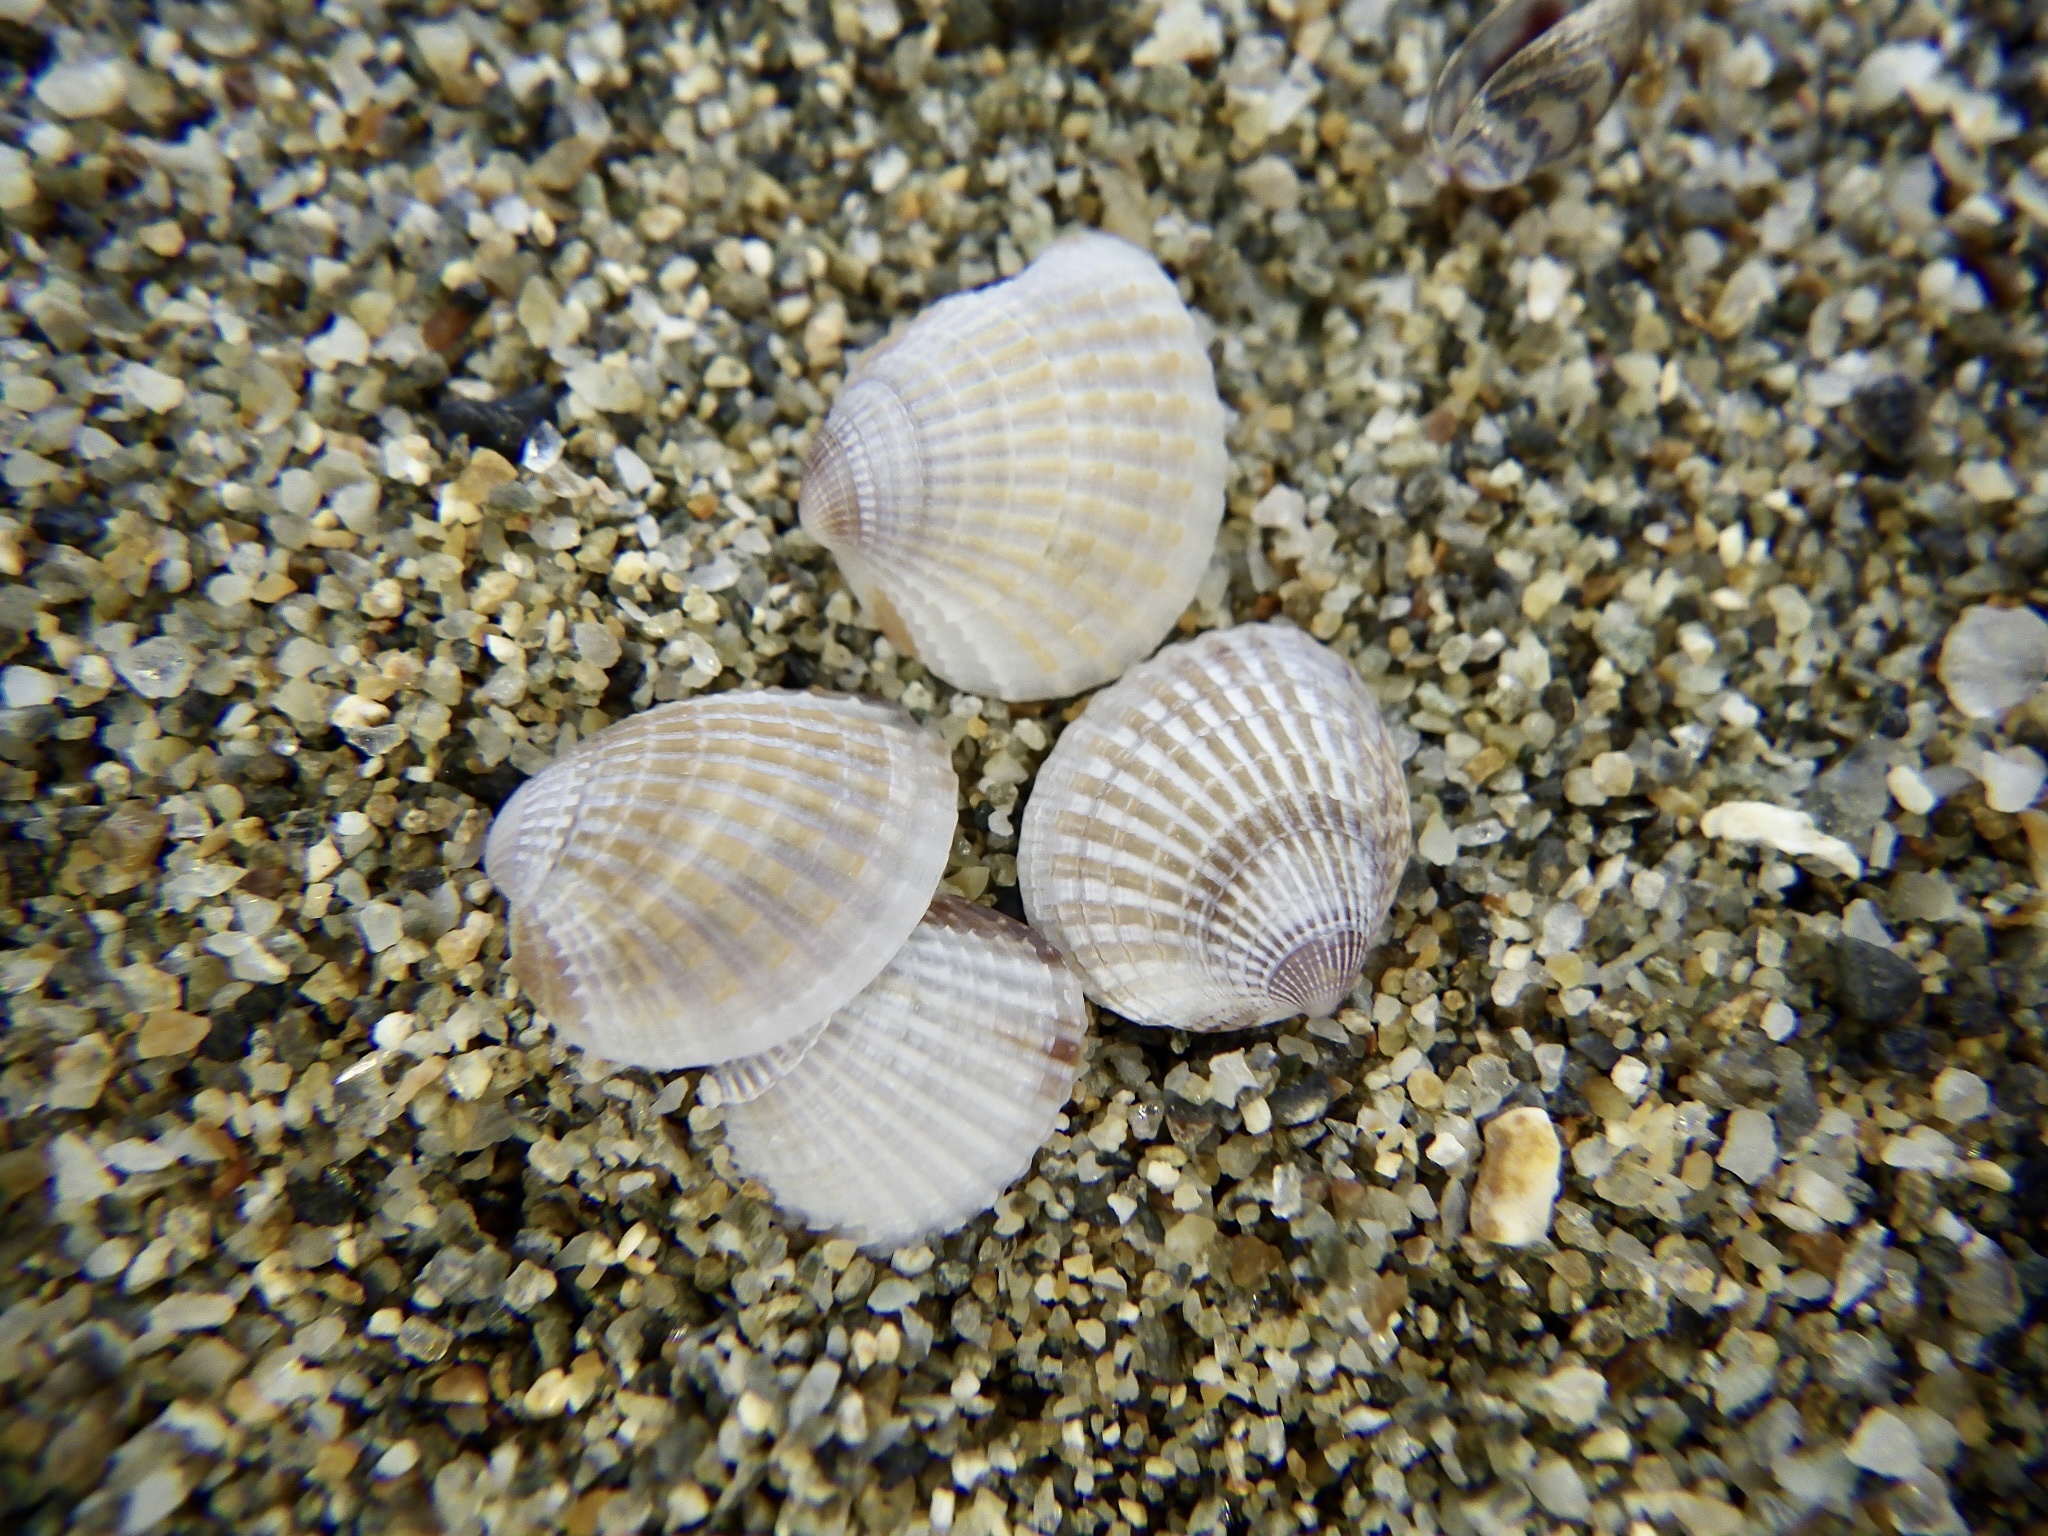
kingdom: Animalia
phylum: Mollusca
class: Bivalvia
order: Venerida
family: Veneridae
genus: Timoclea
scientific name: Timoclea micra
